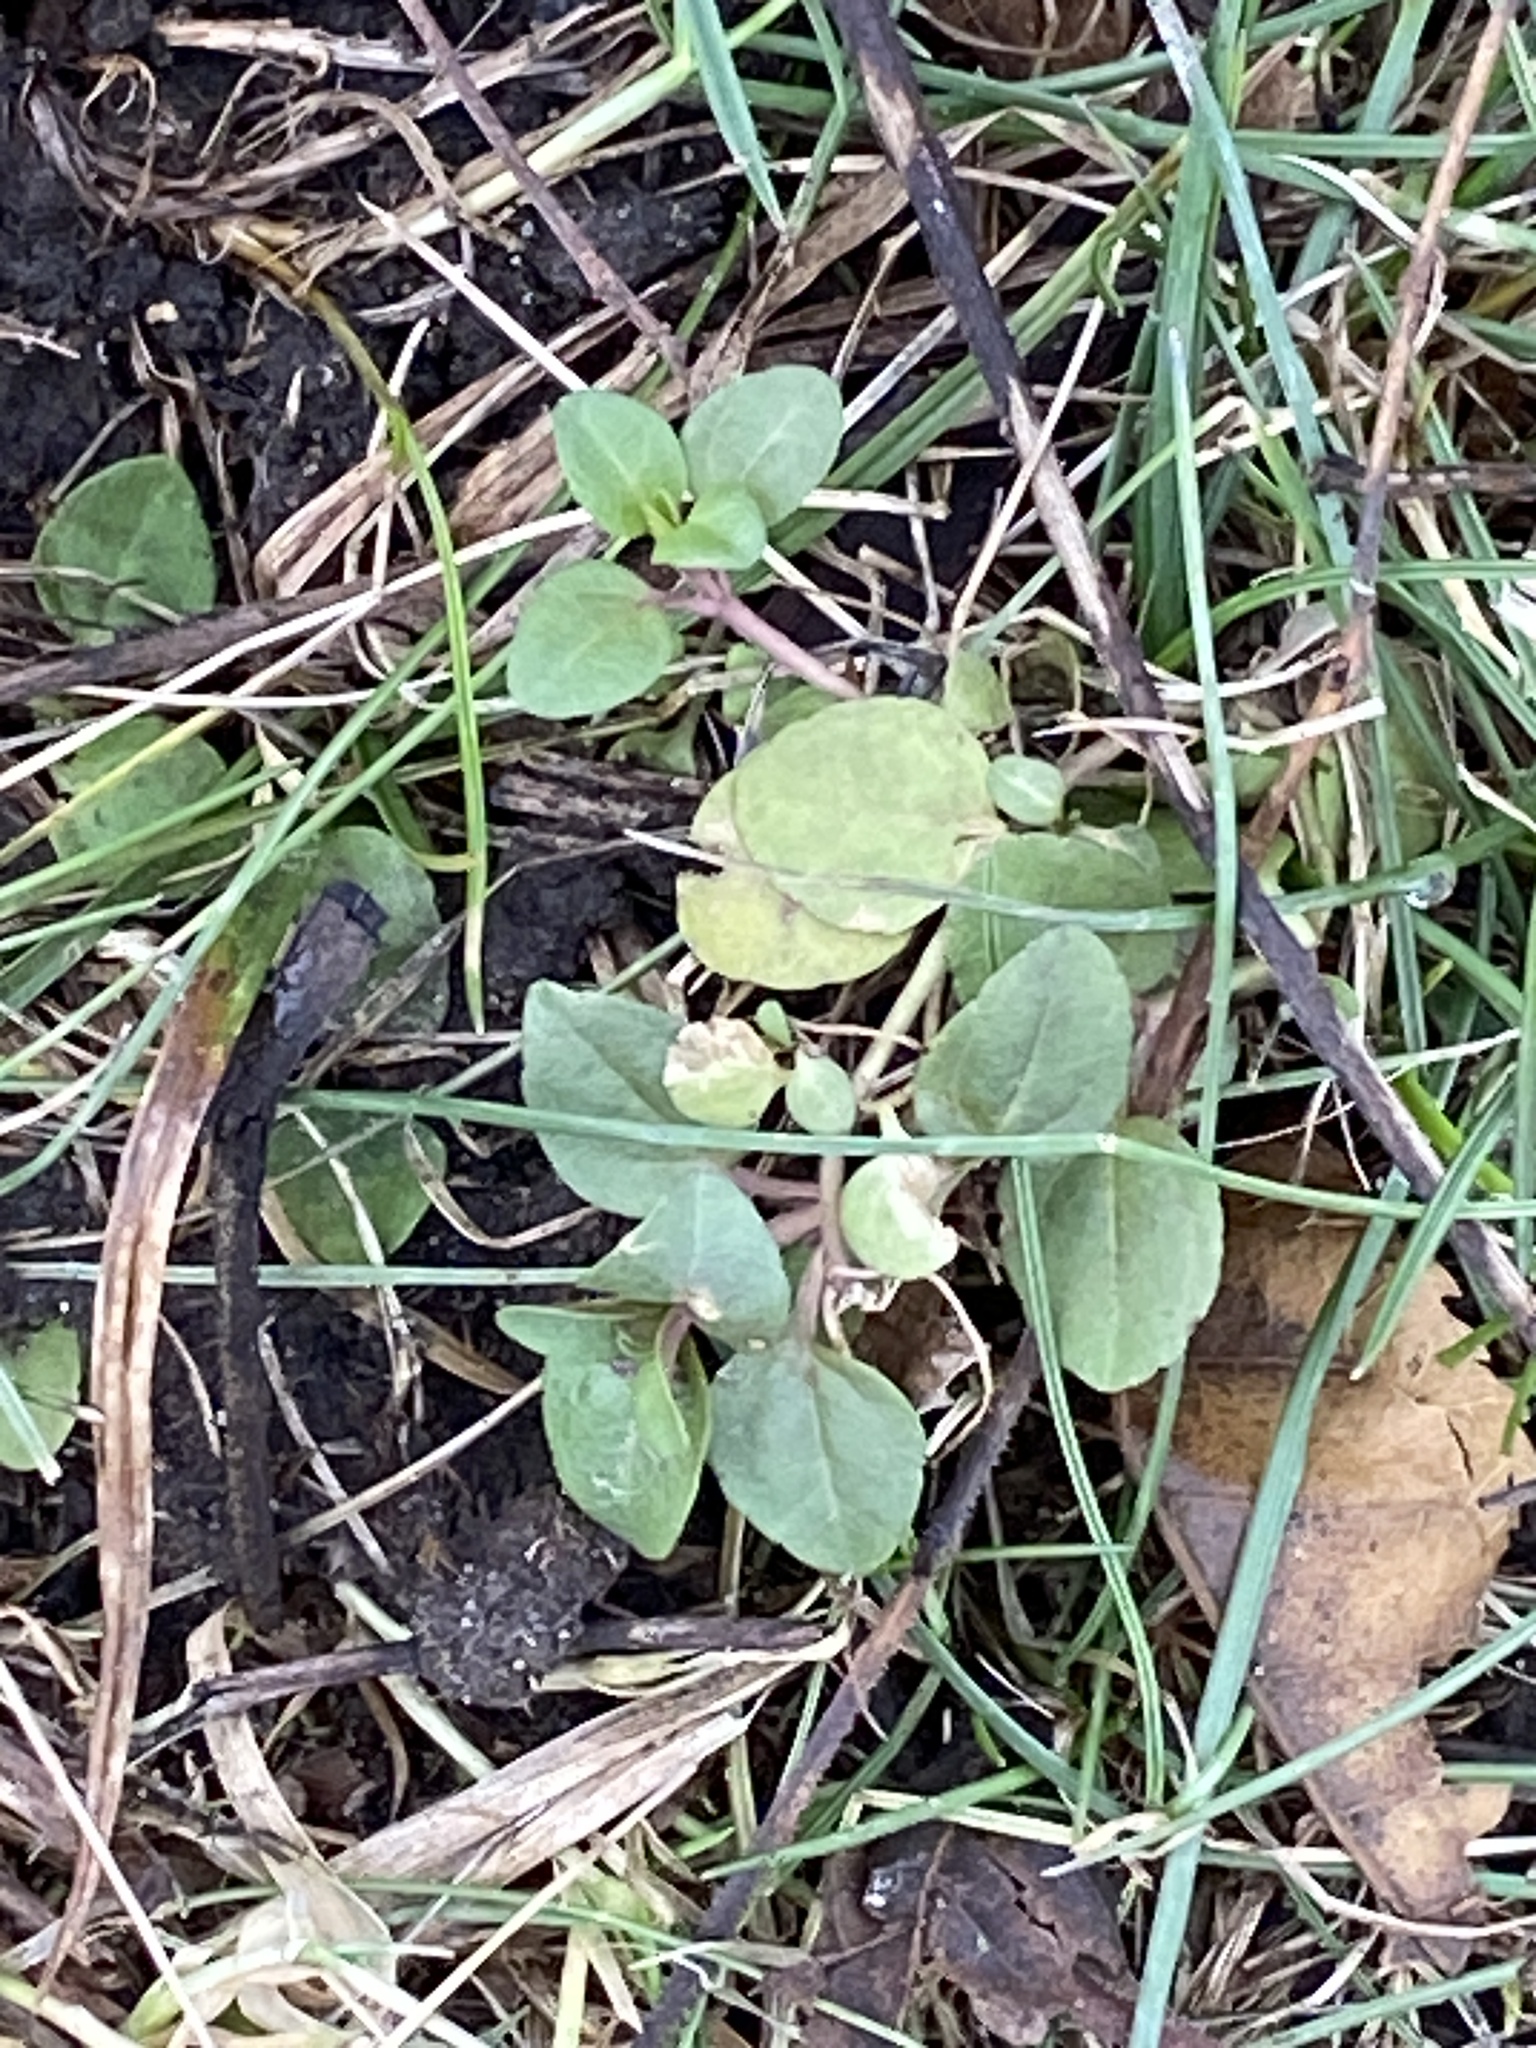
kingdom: Plantae
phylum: Tracheophyta
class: Magnoliopsida
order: Lamiales
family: Plantaginaceae
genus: Veronica
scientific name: Veronica serpyllifolia
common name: Thyme-leaved speedwell
